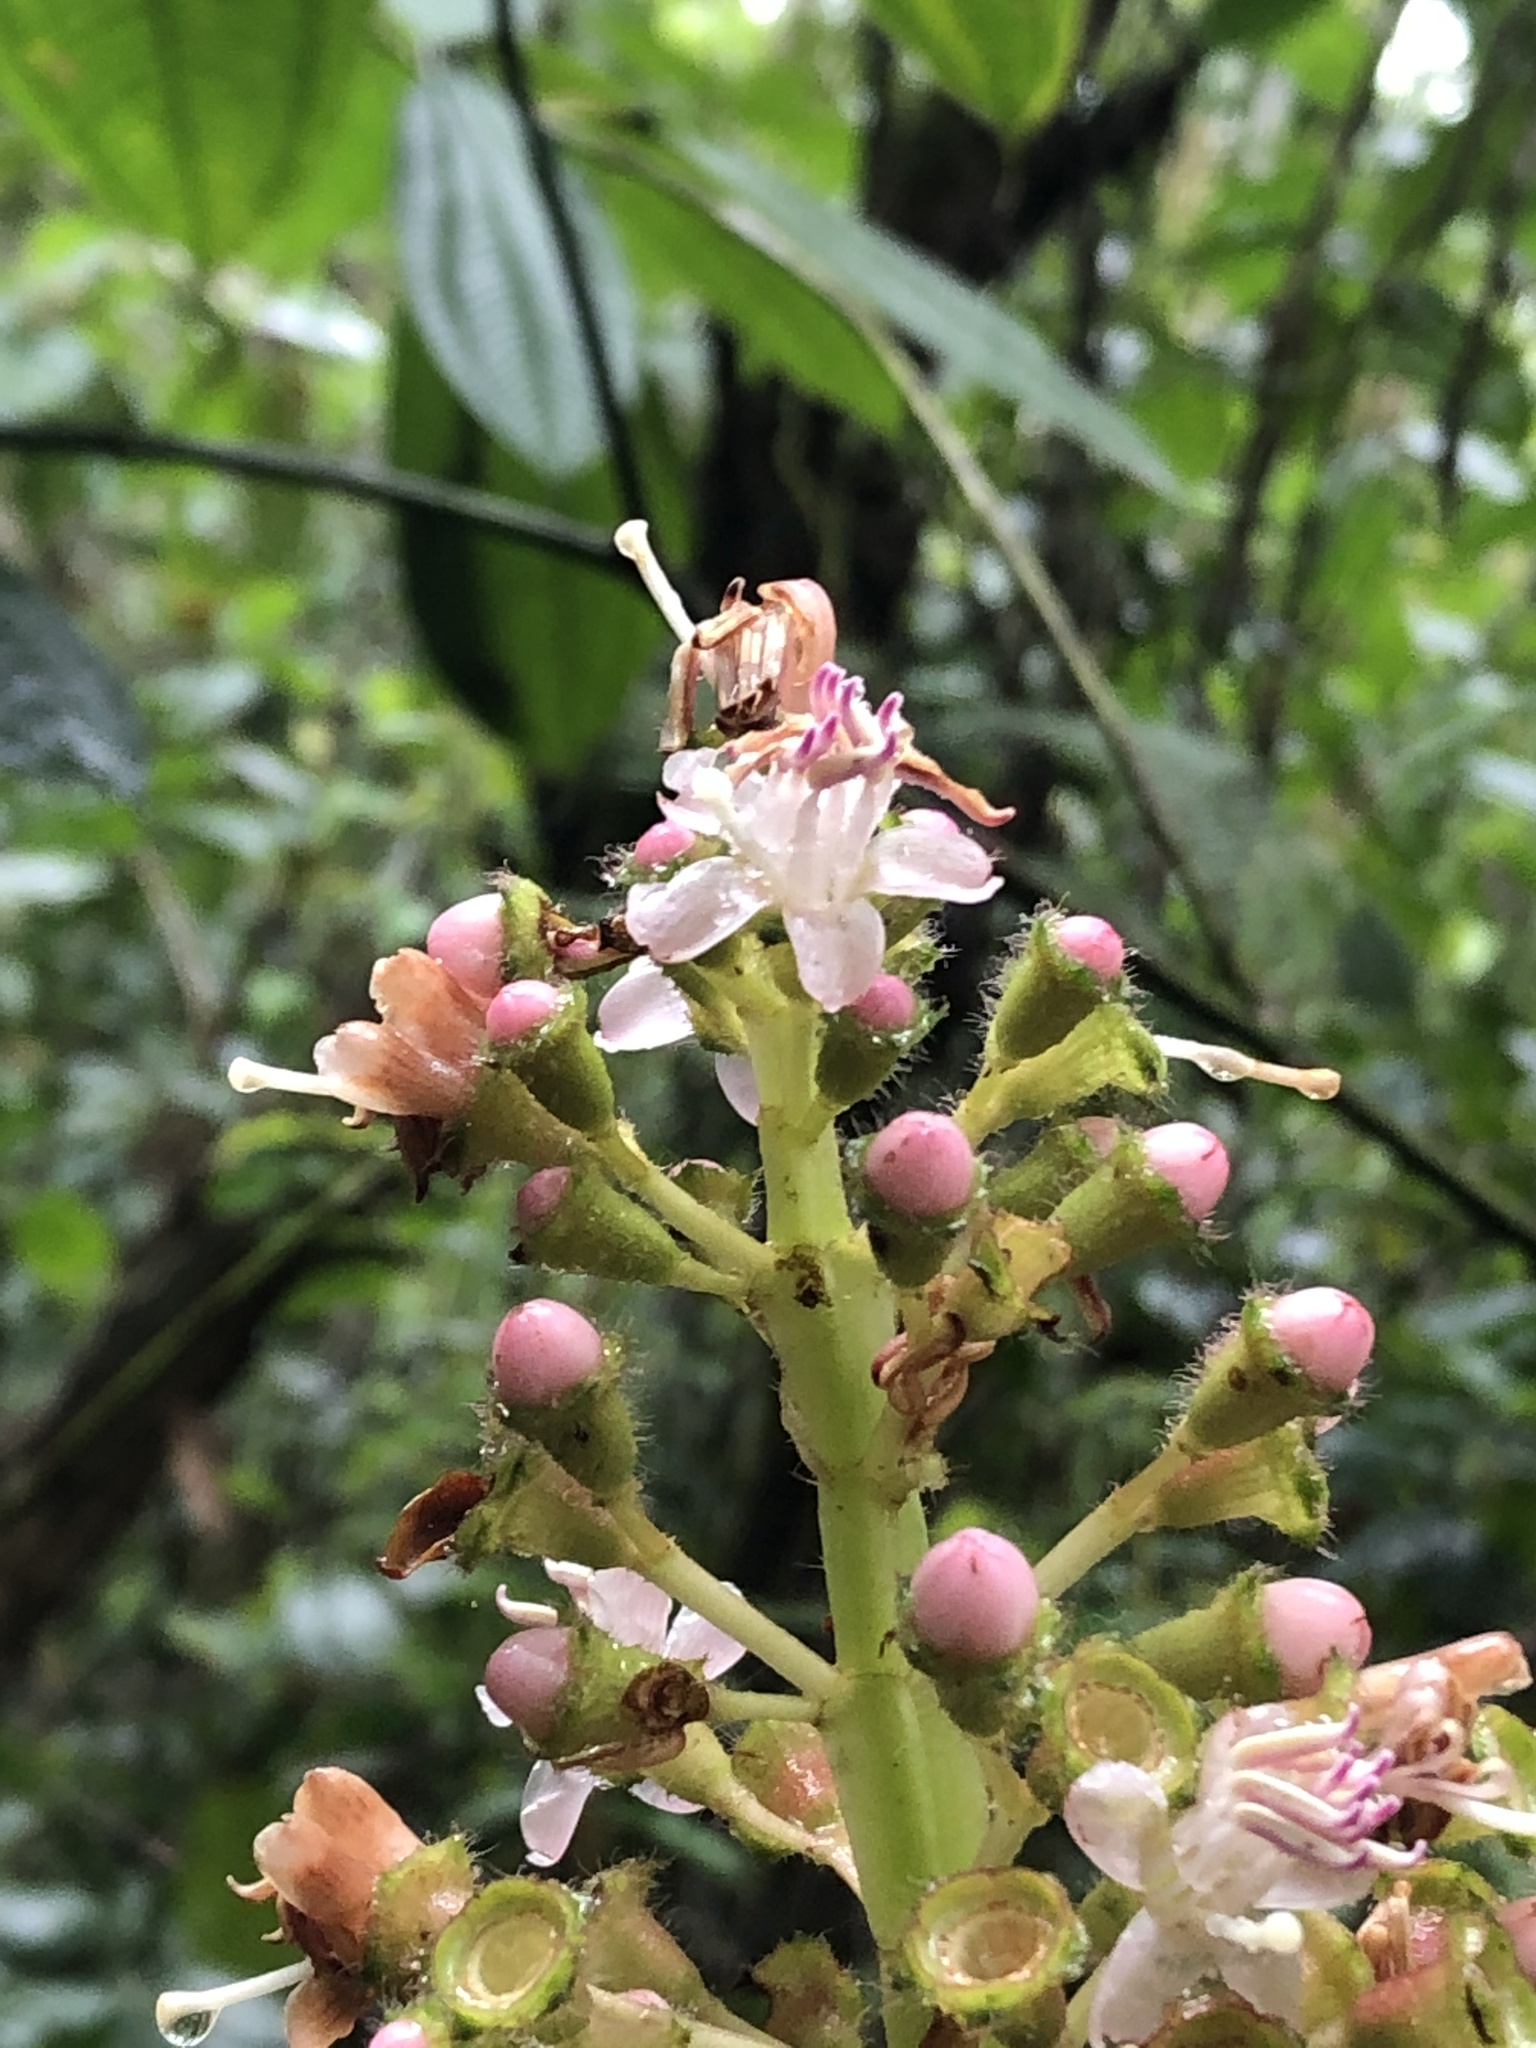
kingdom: Plantae
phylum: Tracheophyta
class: Magnoliopsida
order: Myrtales
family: Melastomataceae
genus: Miconia
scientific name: Miconia tococa
